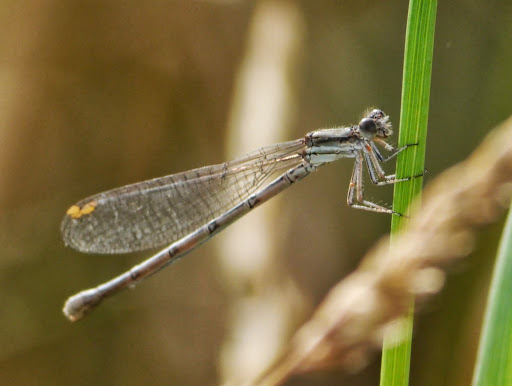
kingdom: Animalia
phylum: Arthropoda
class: Insecta
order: Odonata
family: Coenagrionidae
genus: Argia
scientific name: Argia fumipennis
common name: Variable dancer
